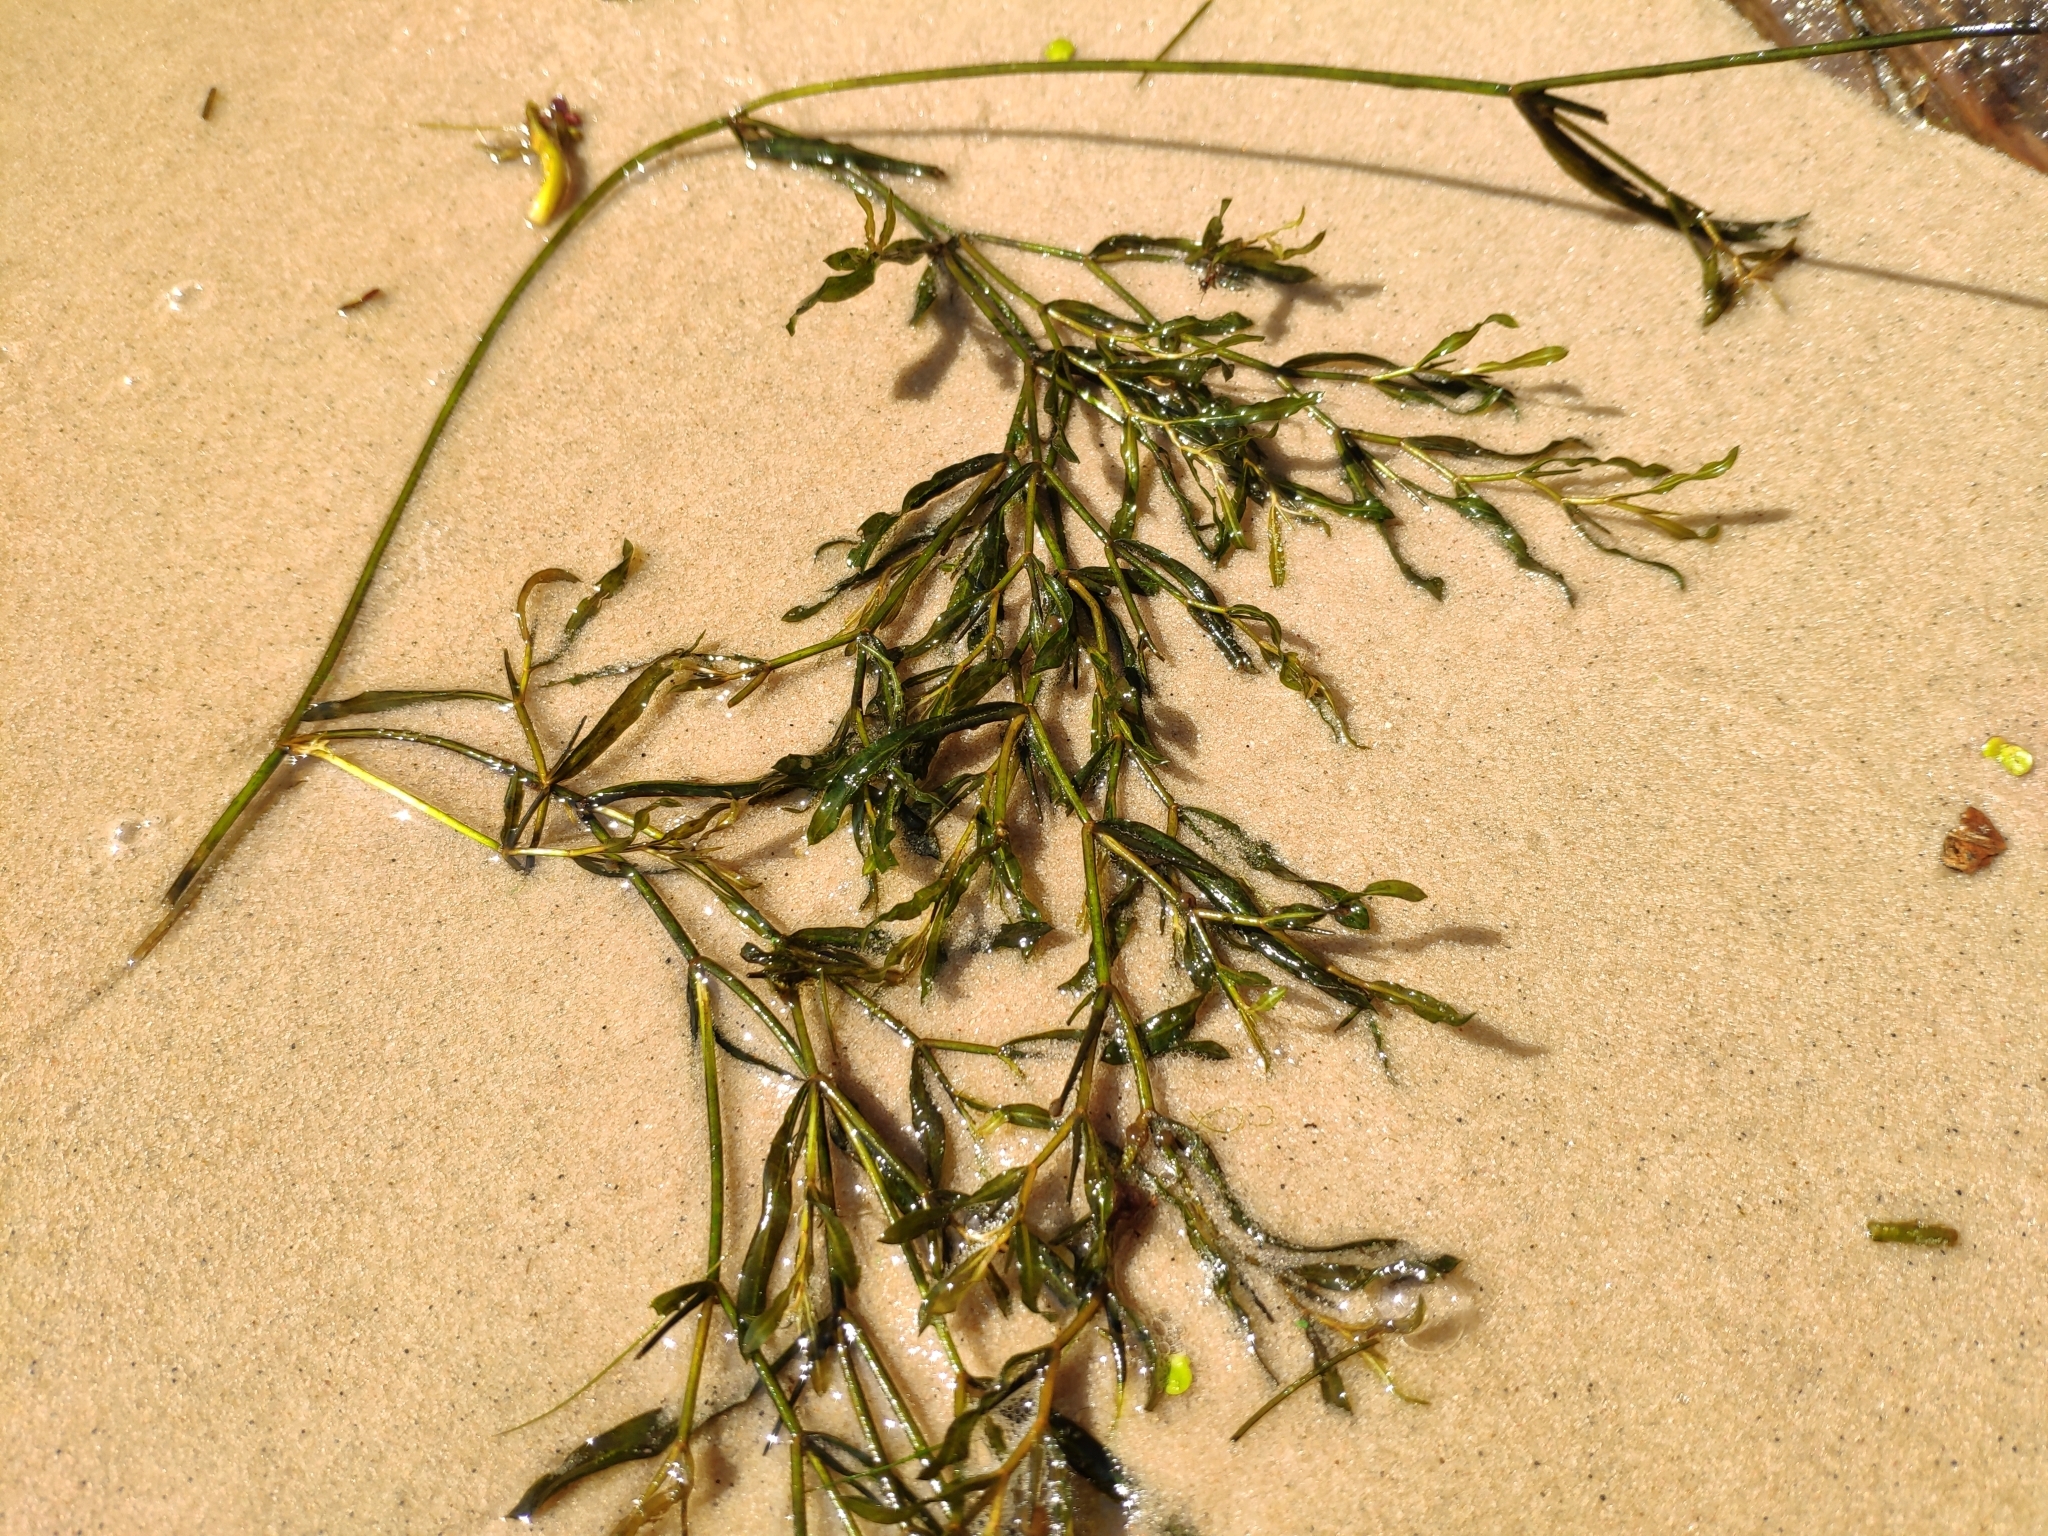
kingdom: Plantae
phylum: Tracheophyta
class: Liliopsida
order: Alismatales
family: Potamogetonaceae
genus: Potamogeton
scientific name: Potamogeton salicifolius
